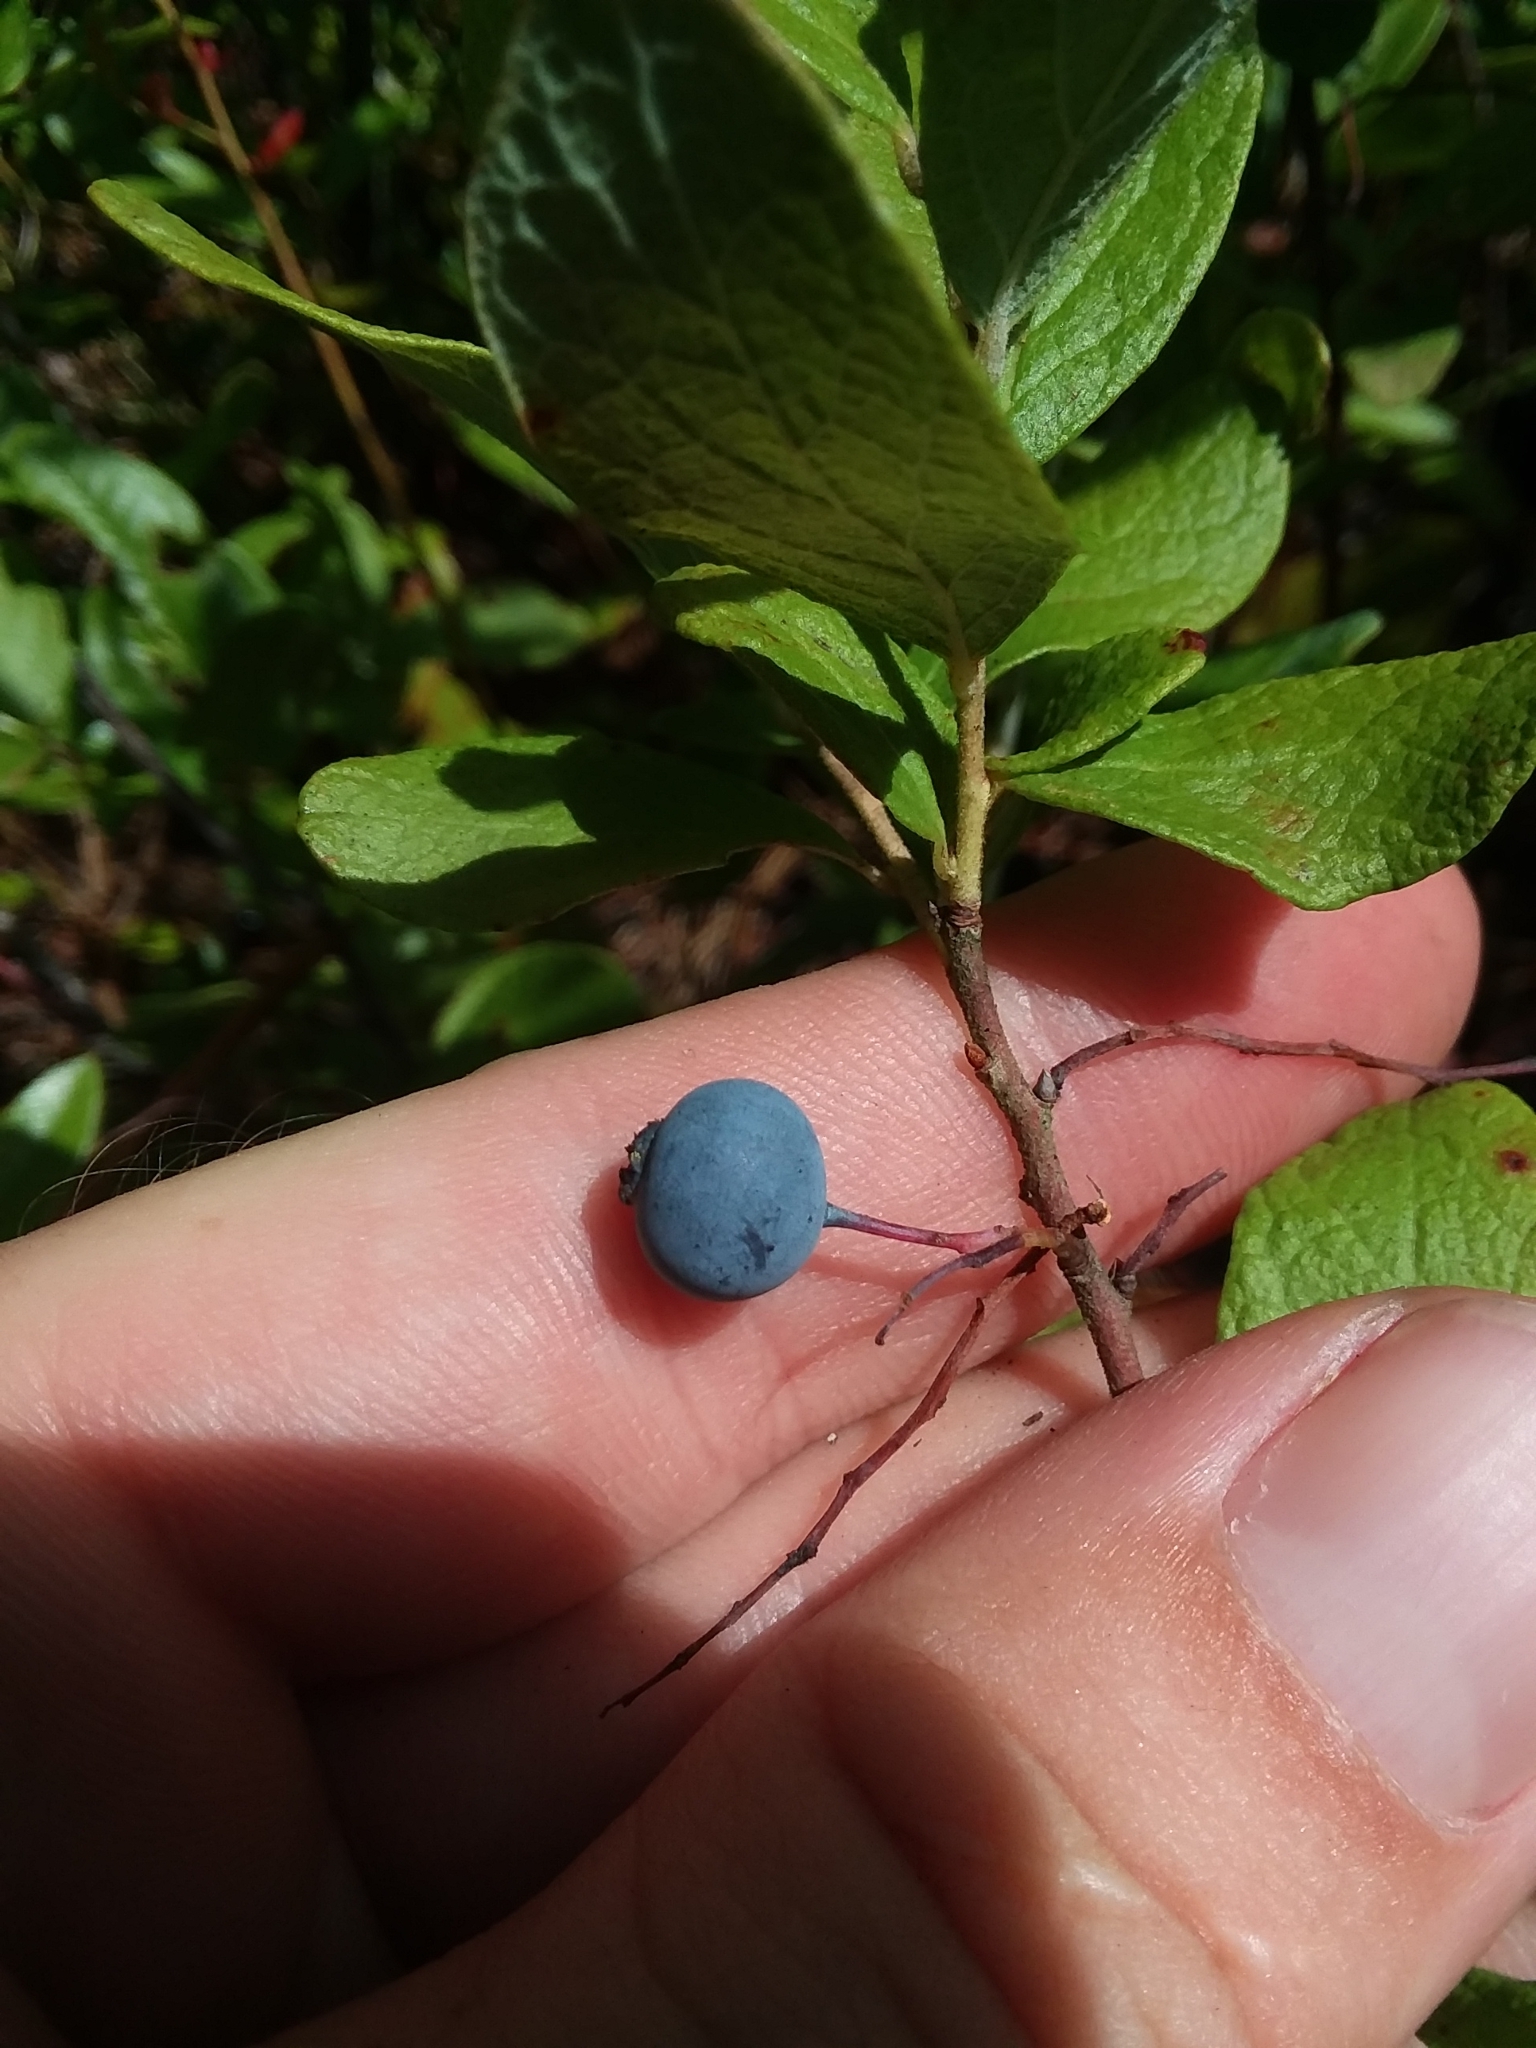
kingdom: Plantae
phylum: Tracheophyta
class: Magnoliopsida
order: Ericales
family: Ericaceae
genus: Gaylussacia
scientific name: Gaylussacia nana
